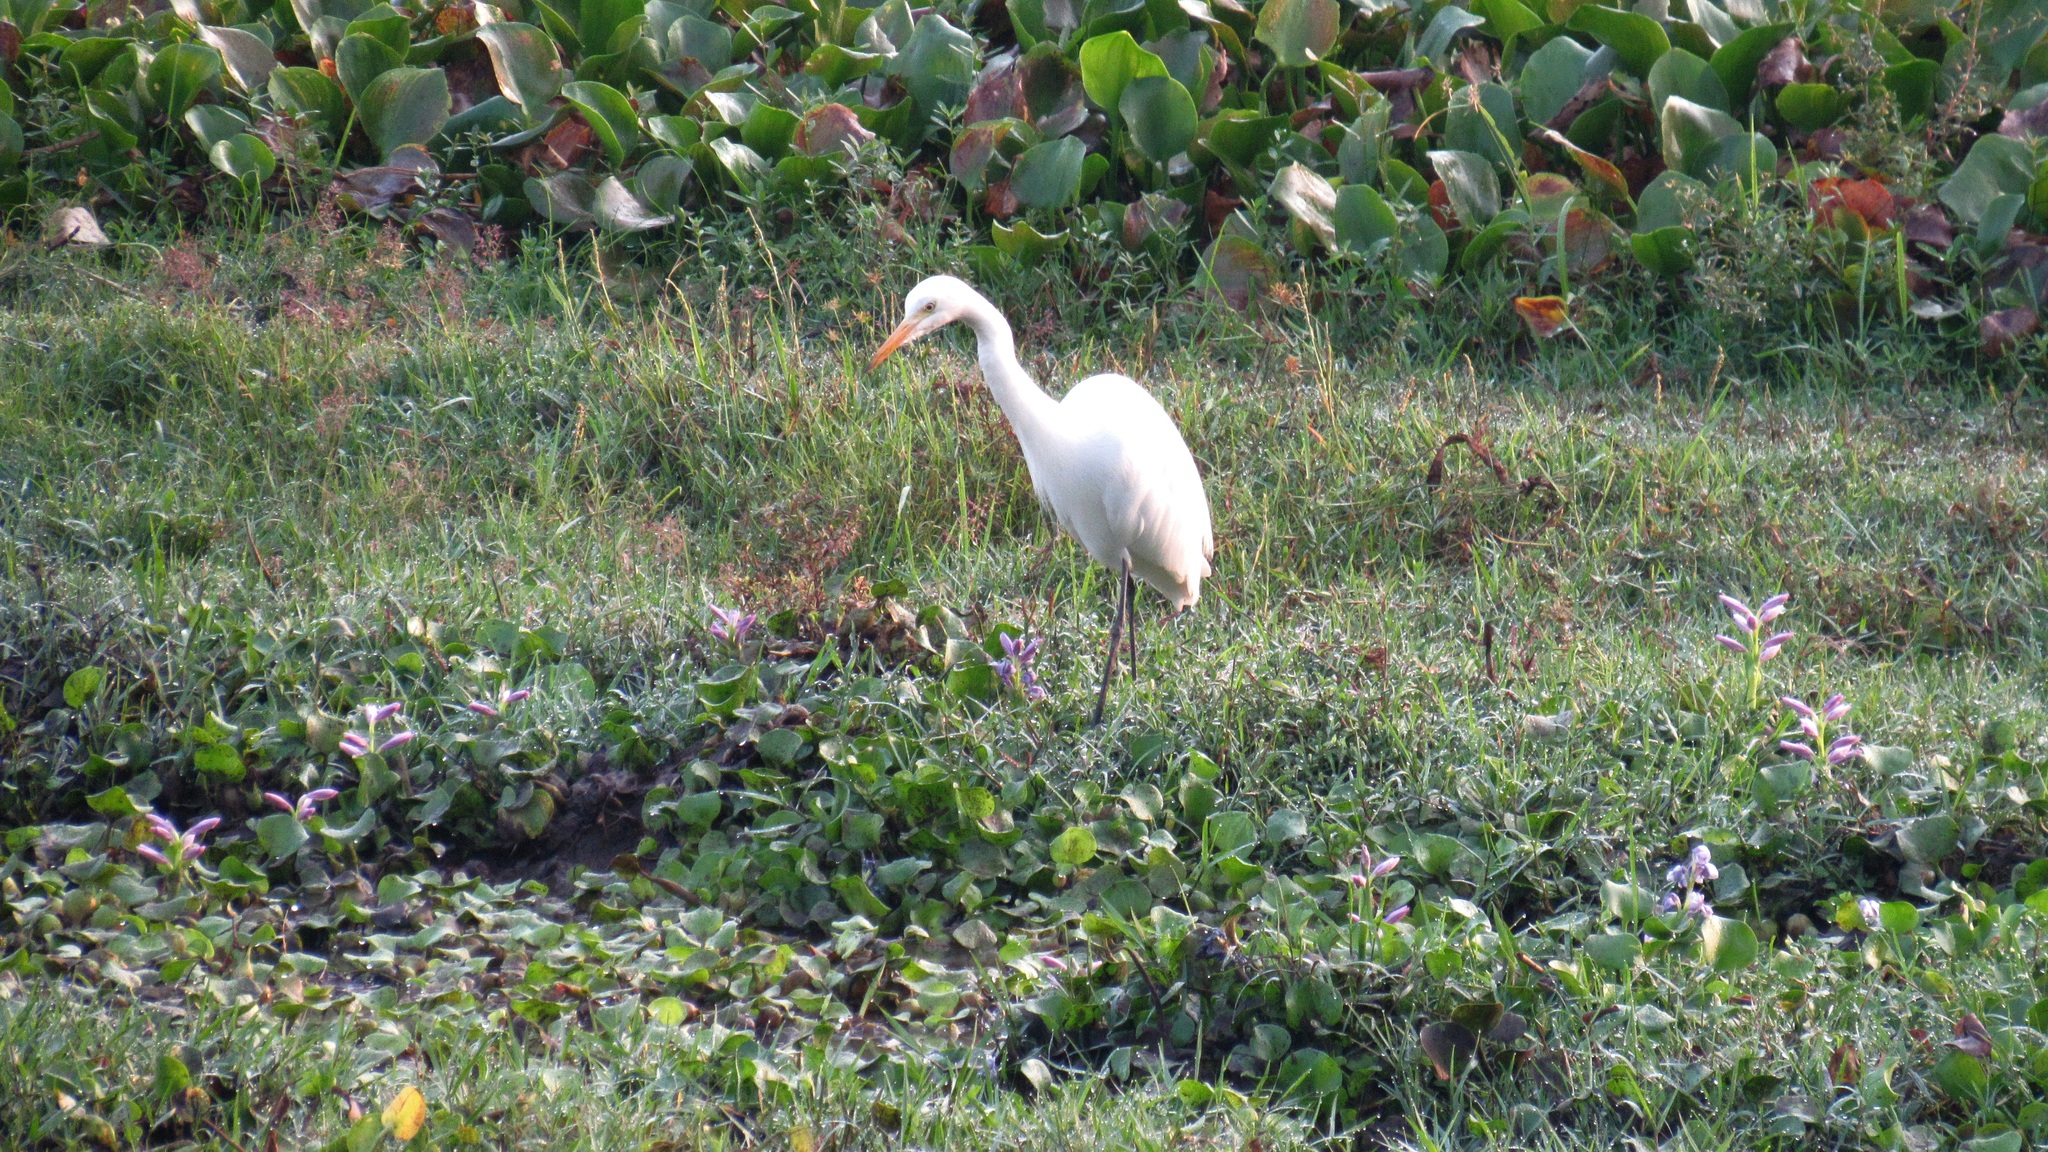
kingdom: Animalia
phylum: Chordata
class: Aves
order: Pelecaniformes
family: Ardeidae
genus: Egretta
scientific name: Egretta intermedia
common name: Intermediate egret
